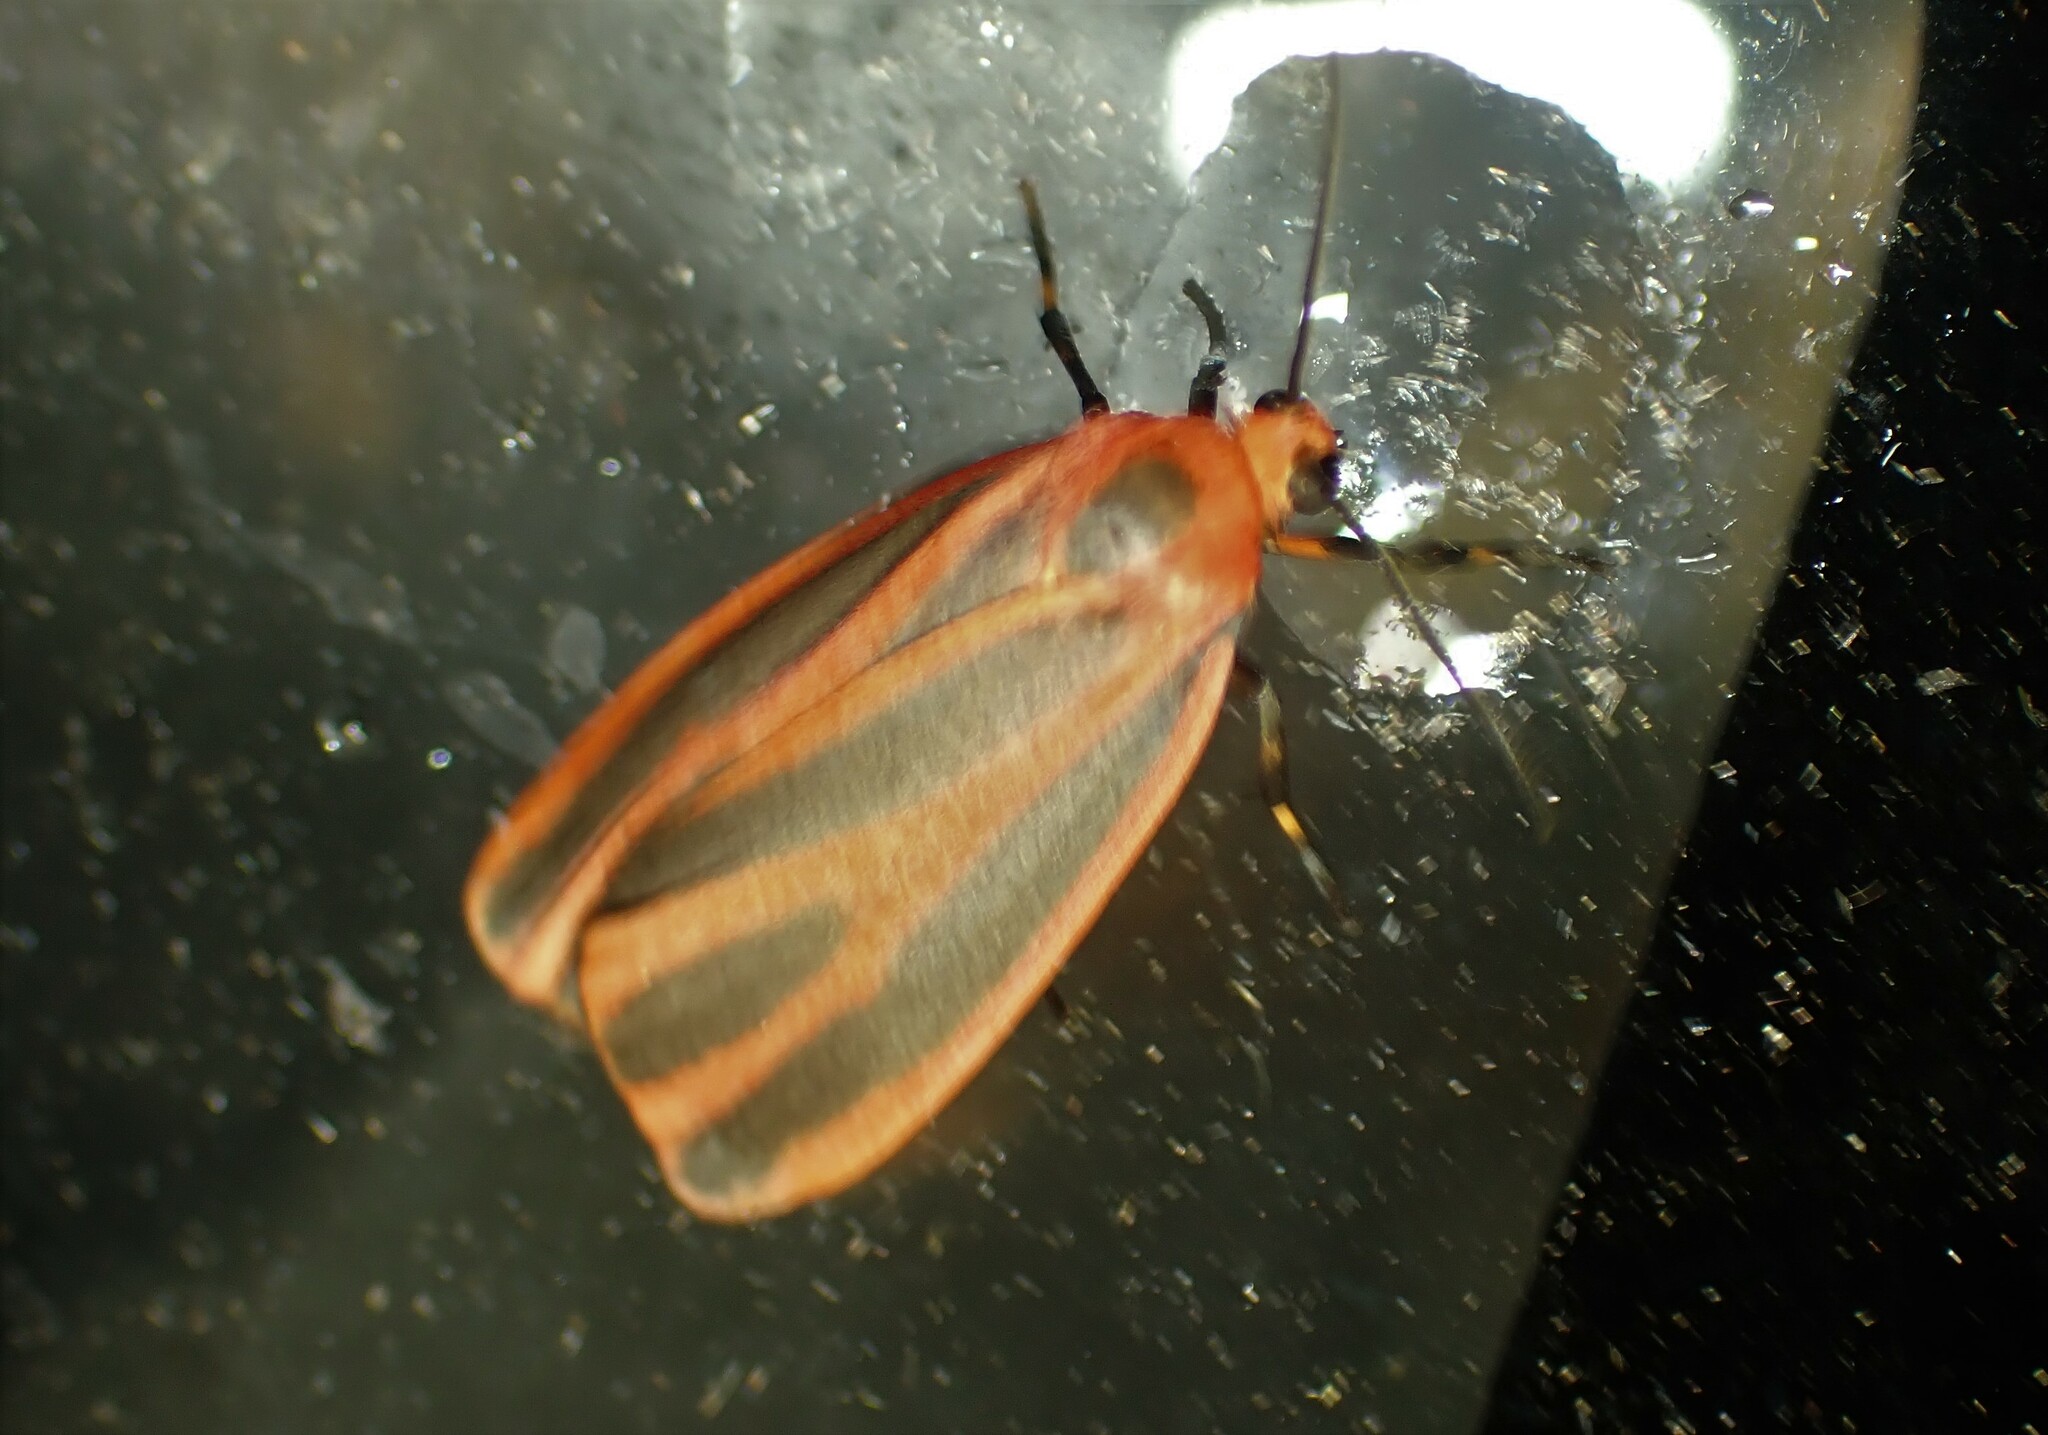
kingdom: Animalia
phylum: Arthropoda
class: Insecta
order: Lepidoptera
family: Erebidae
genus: Hypoprepia
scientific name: Hypoprepia miniata
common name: Scarlet-winged lichen moth
